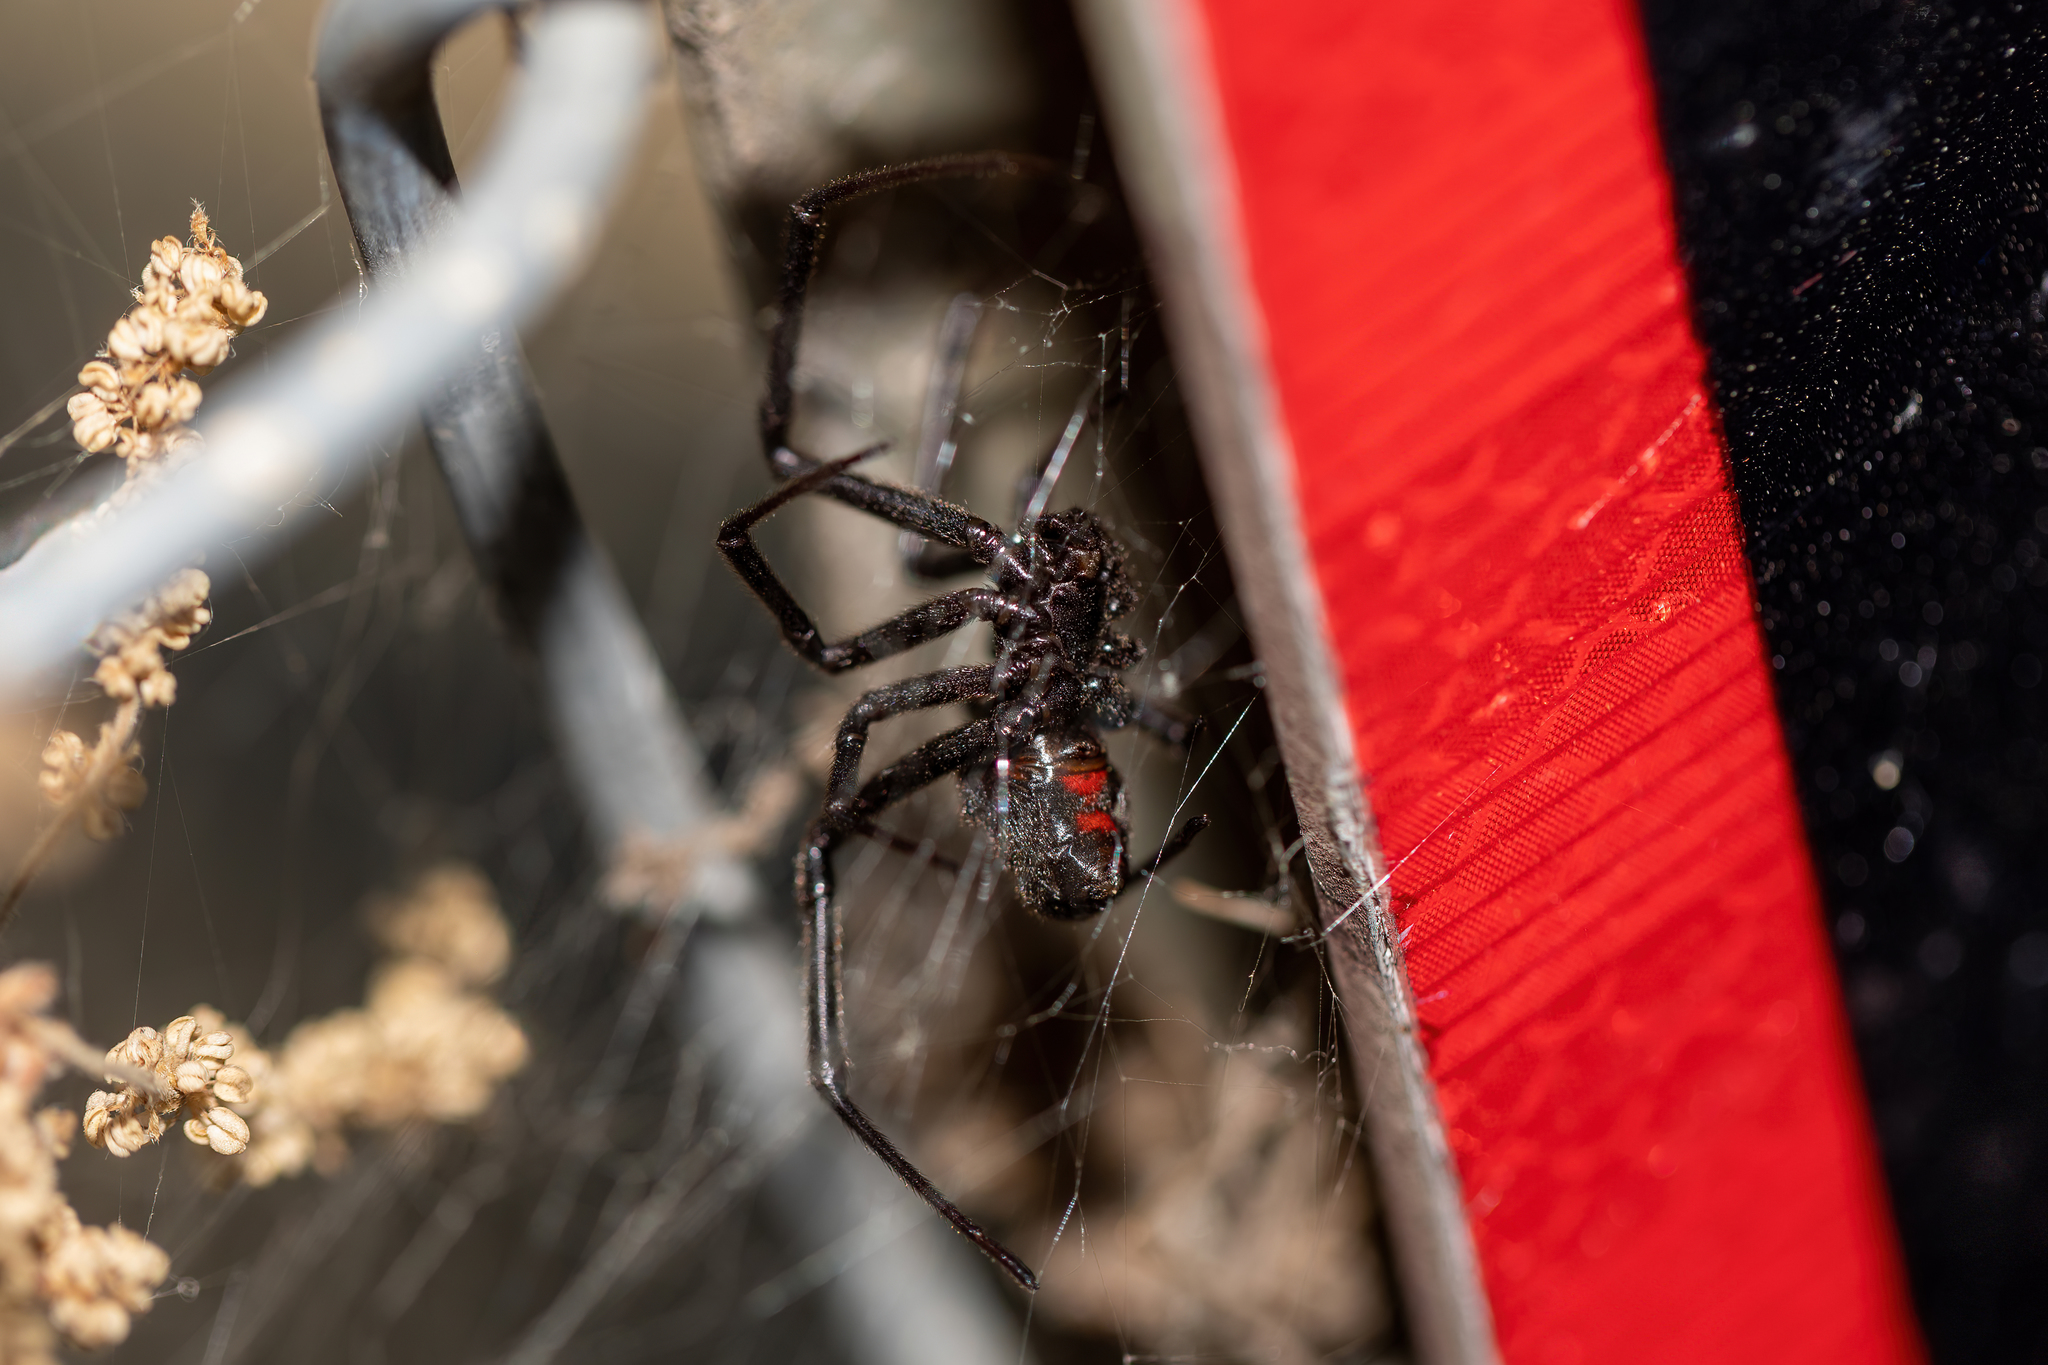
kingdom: Animalia
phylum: Arthropoda
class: Arachnida
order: Araneae
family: Theridiidae
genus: Latrodectus
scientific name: Latrodectus hesperus
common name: Western black widow
